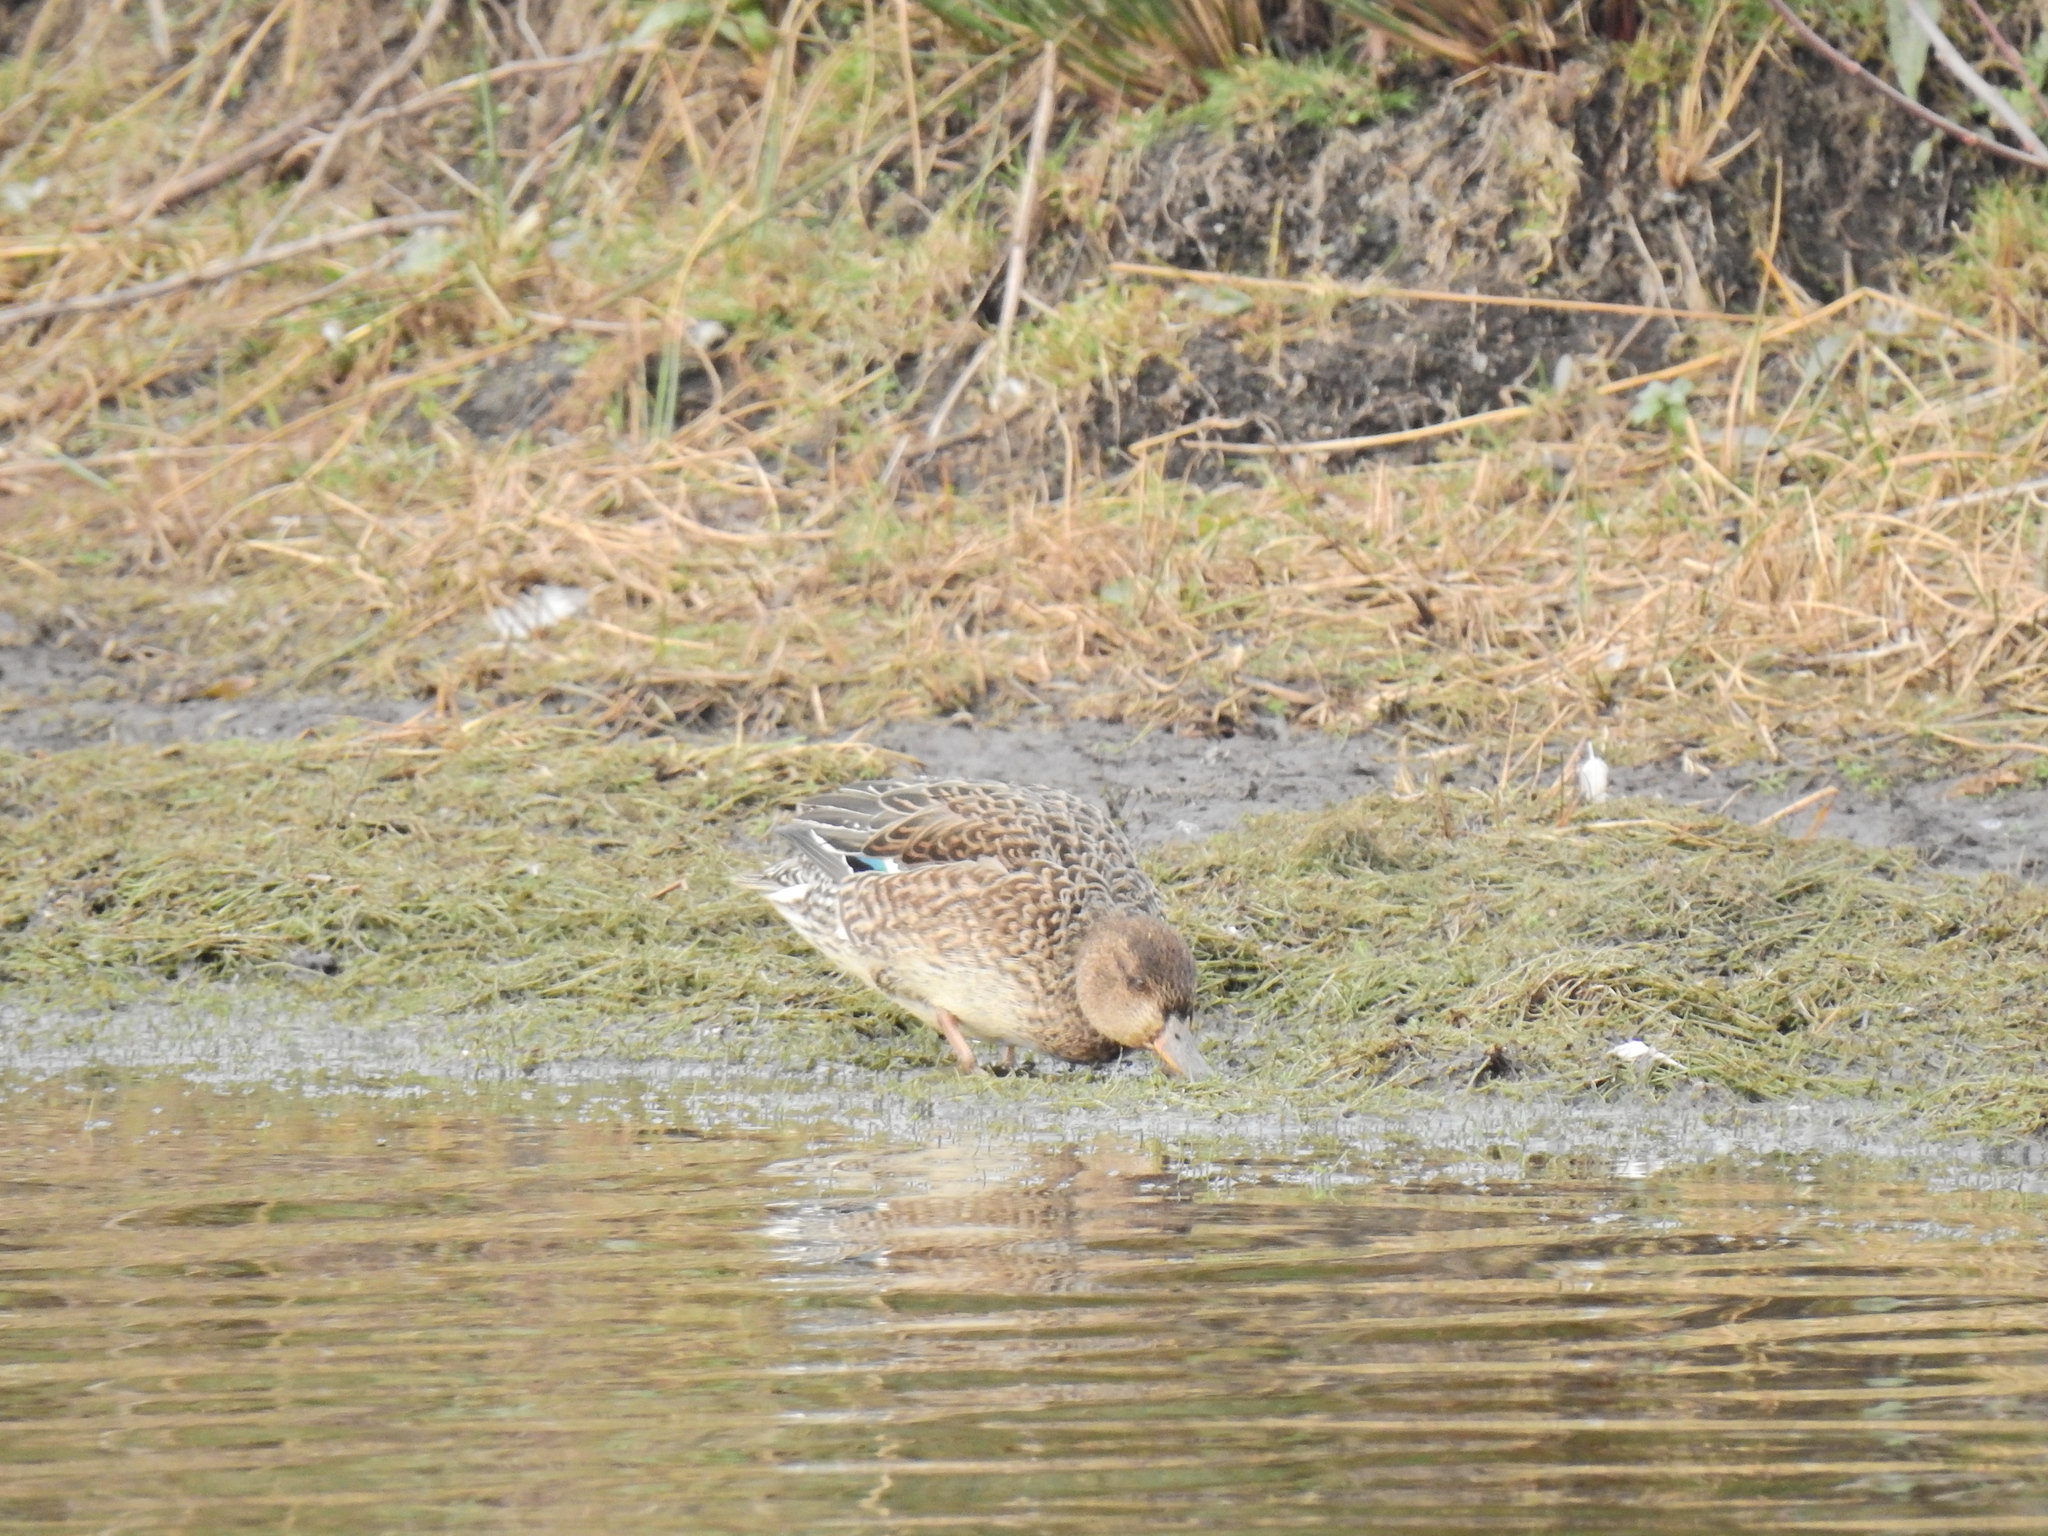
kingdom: Animalia
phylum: Chordata
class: Aves
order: Anseriformes
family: Anatidae
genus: Anas
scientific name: Anas crecca
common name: Eurasian teal
